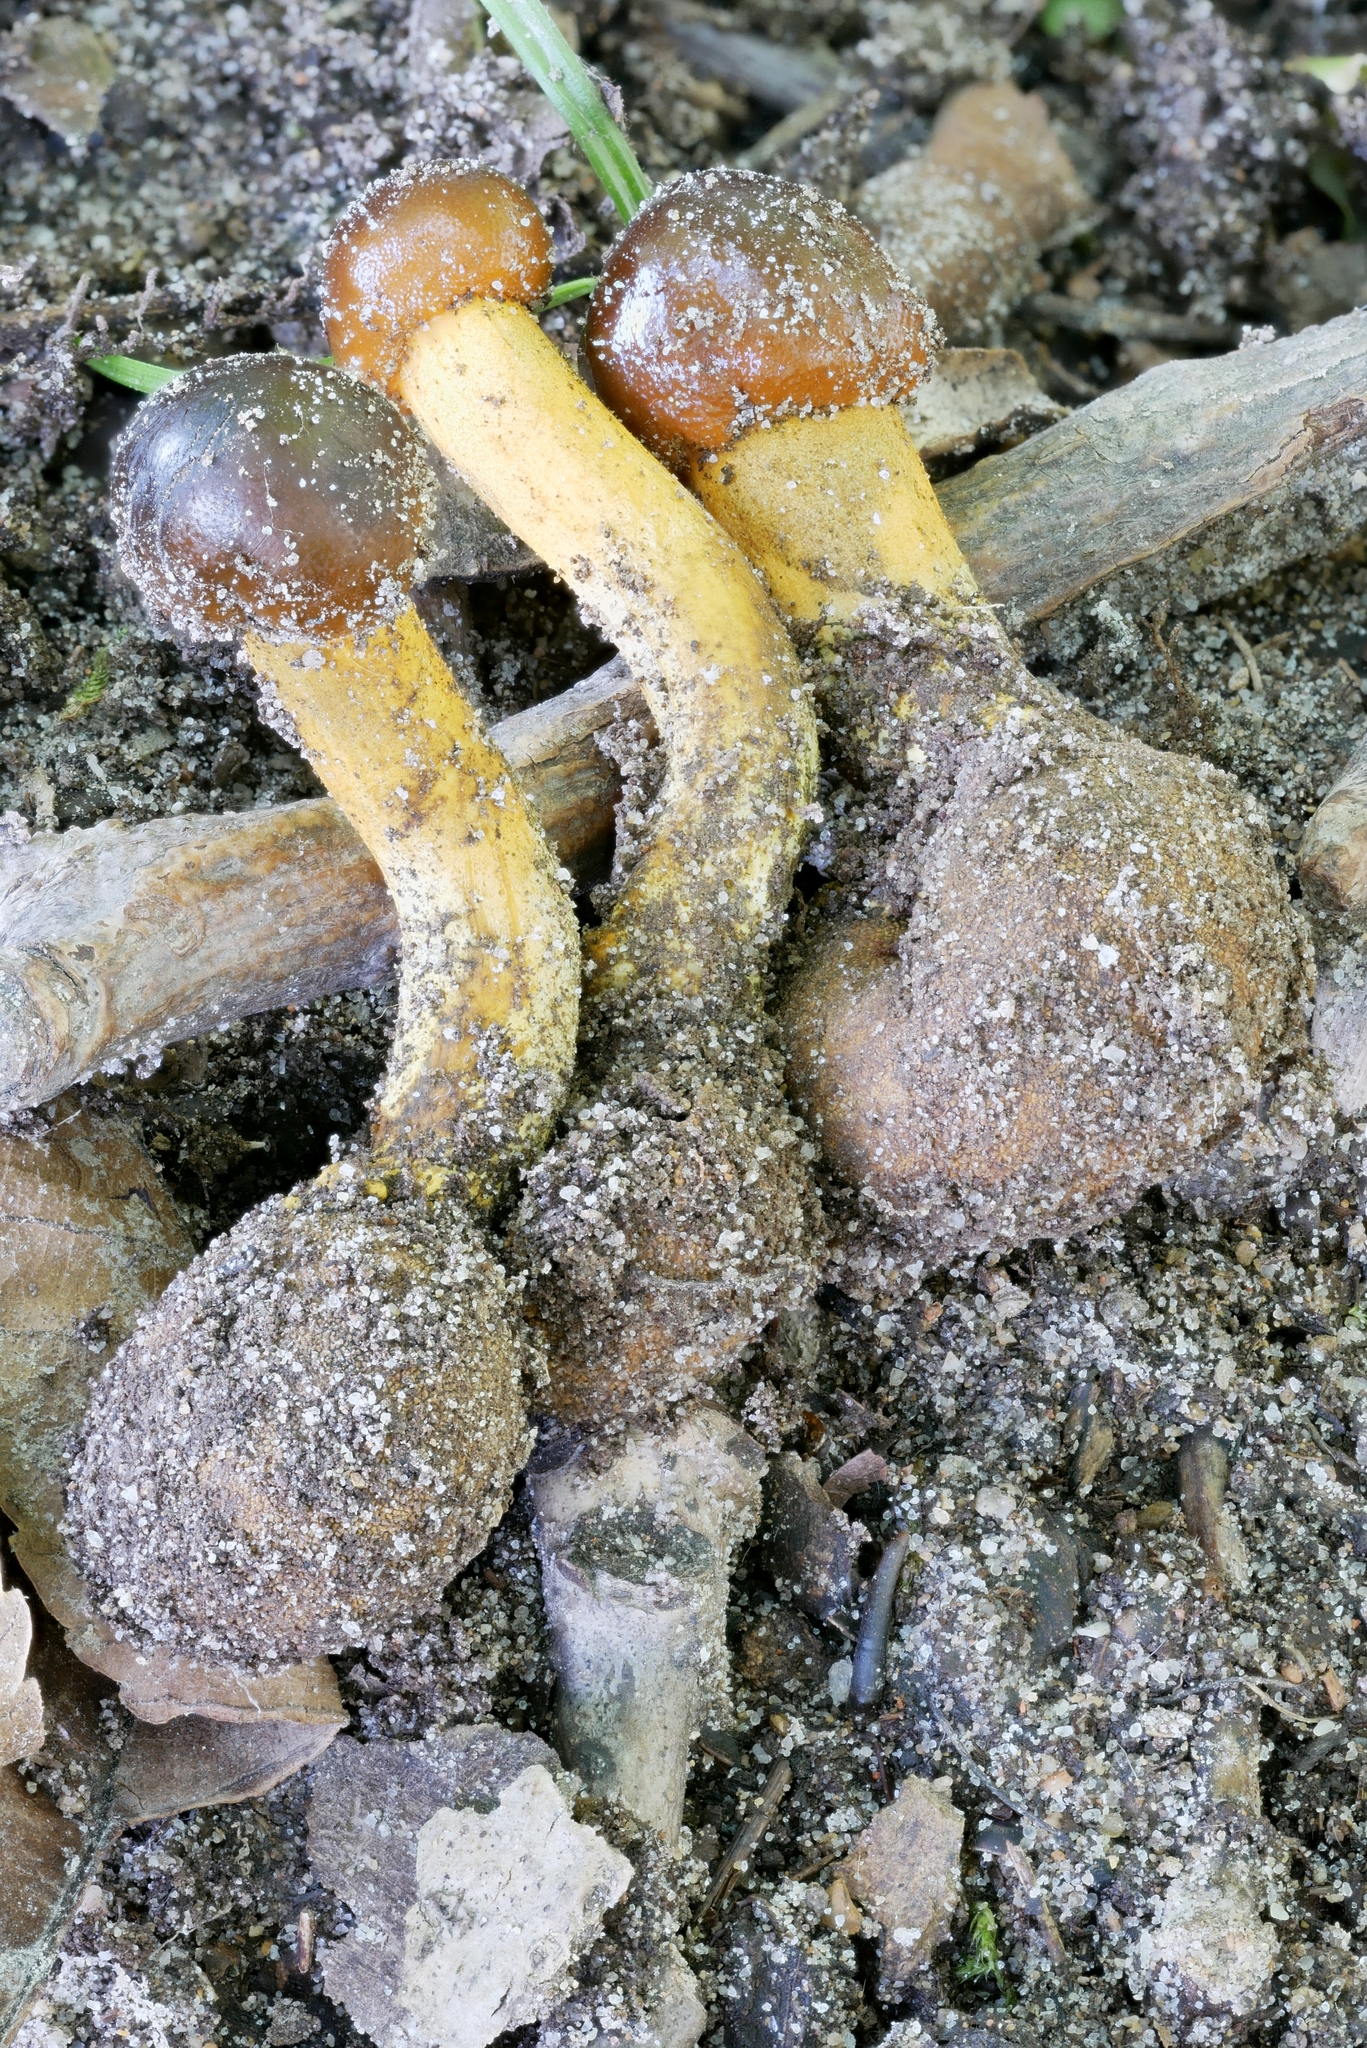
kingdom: Fungi
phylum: Ascomycota
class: Sordariomycetes
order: Hypocreales
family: Ophiocordycipitaceae
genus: Tolypocladium
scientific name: Tolypocladium longisegmentatum
